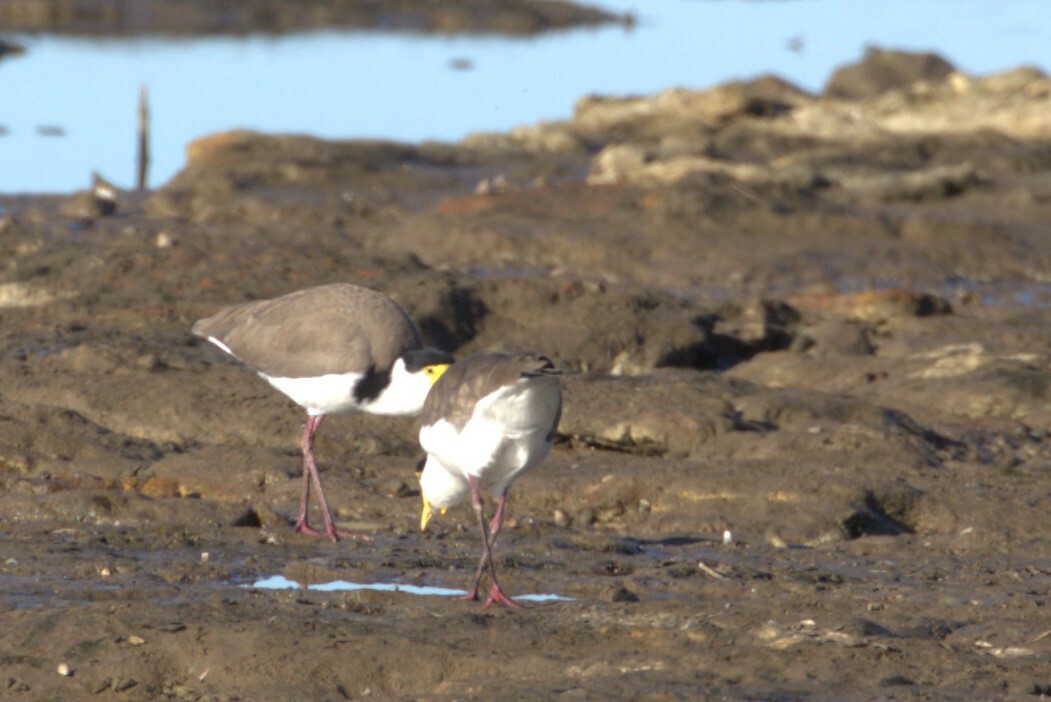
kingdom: Animalia
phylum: Chordata
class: Aves
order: Charadriiformes
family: Charadriidae
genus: Vanellus
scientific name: Vanellus miles
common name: Masked lapwing
